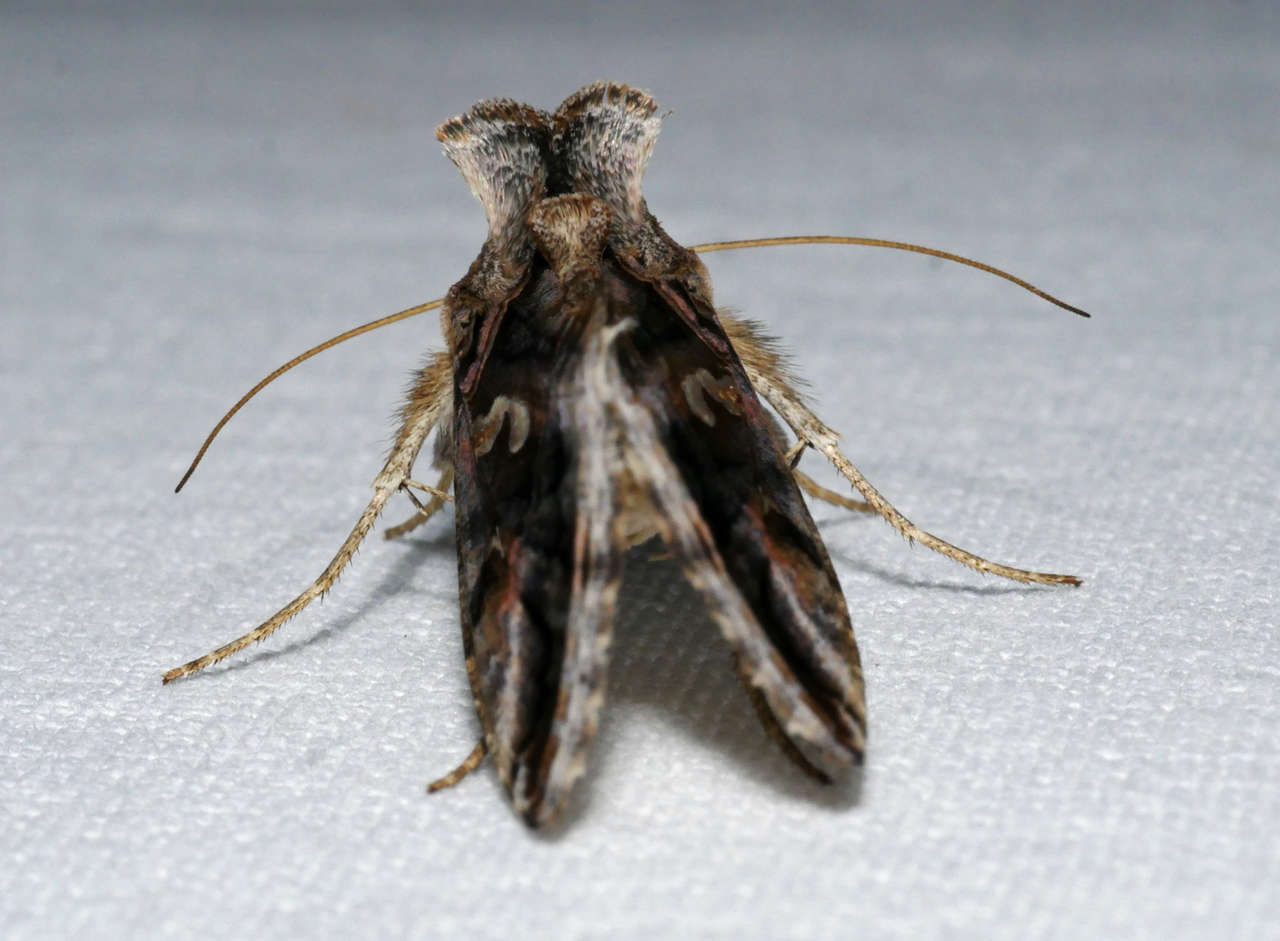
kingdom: Animalia
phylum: Arthropoda
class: Insecta
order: Lepidoptera
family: Noctuidae
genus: Chrysodeixis
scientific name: Chrysodeixis argentifera
